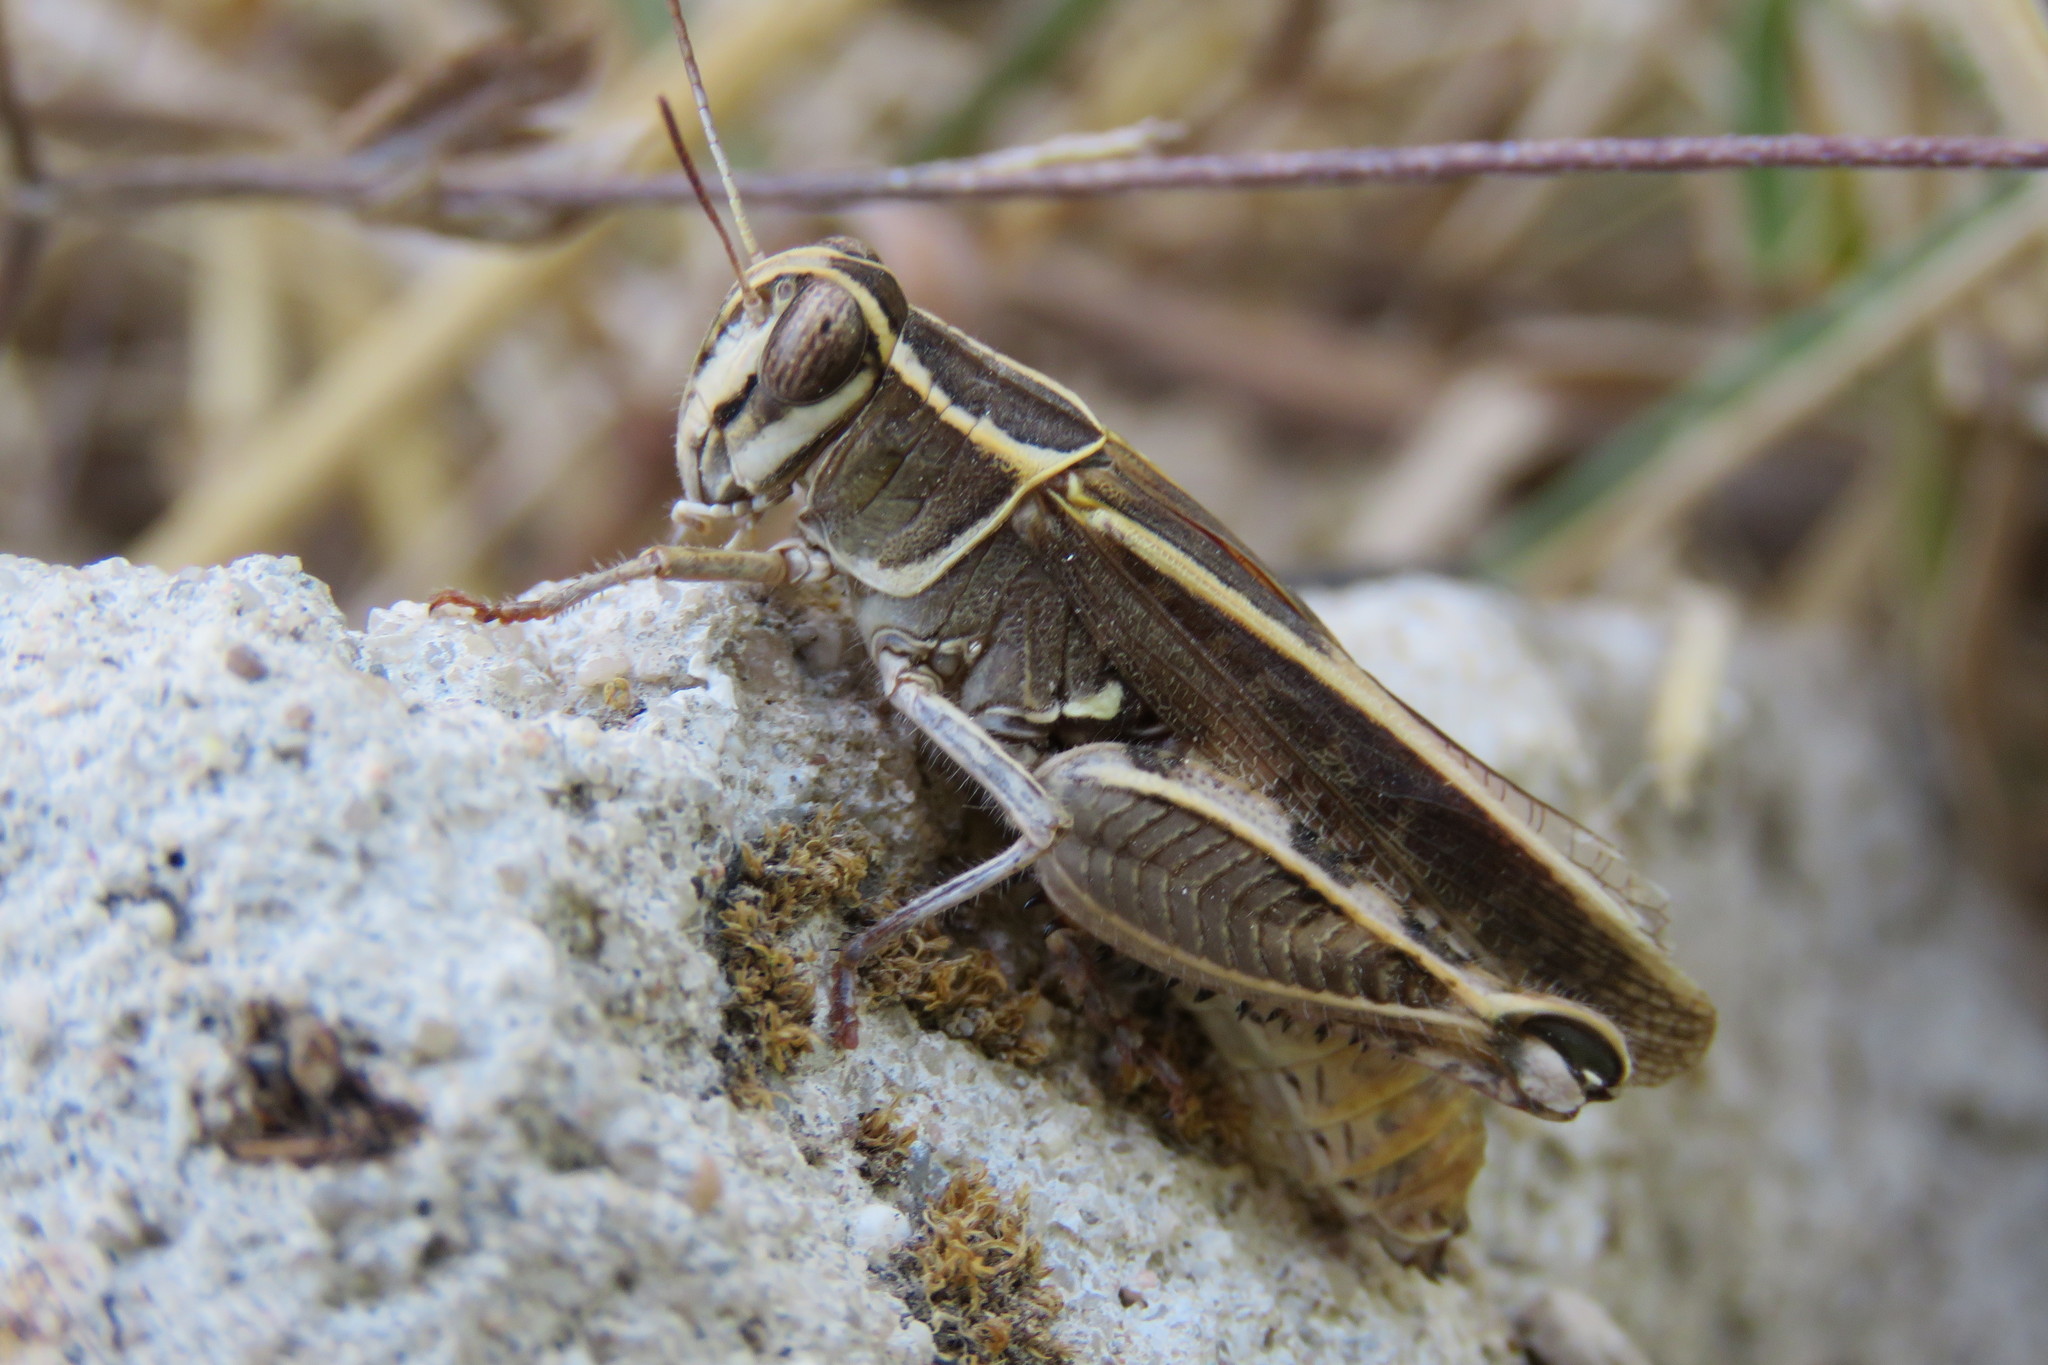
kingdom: Animalia
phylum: Arthropoda
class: Insecta
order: Orthoptera
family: Acrididae
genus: Calliptamus
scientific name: Calliptamus barbarus
